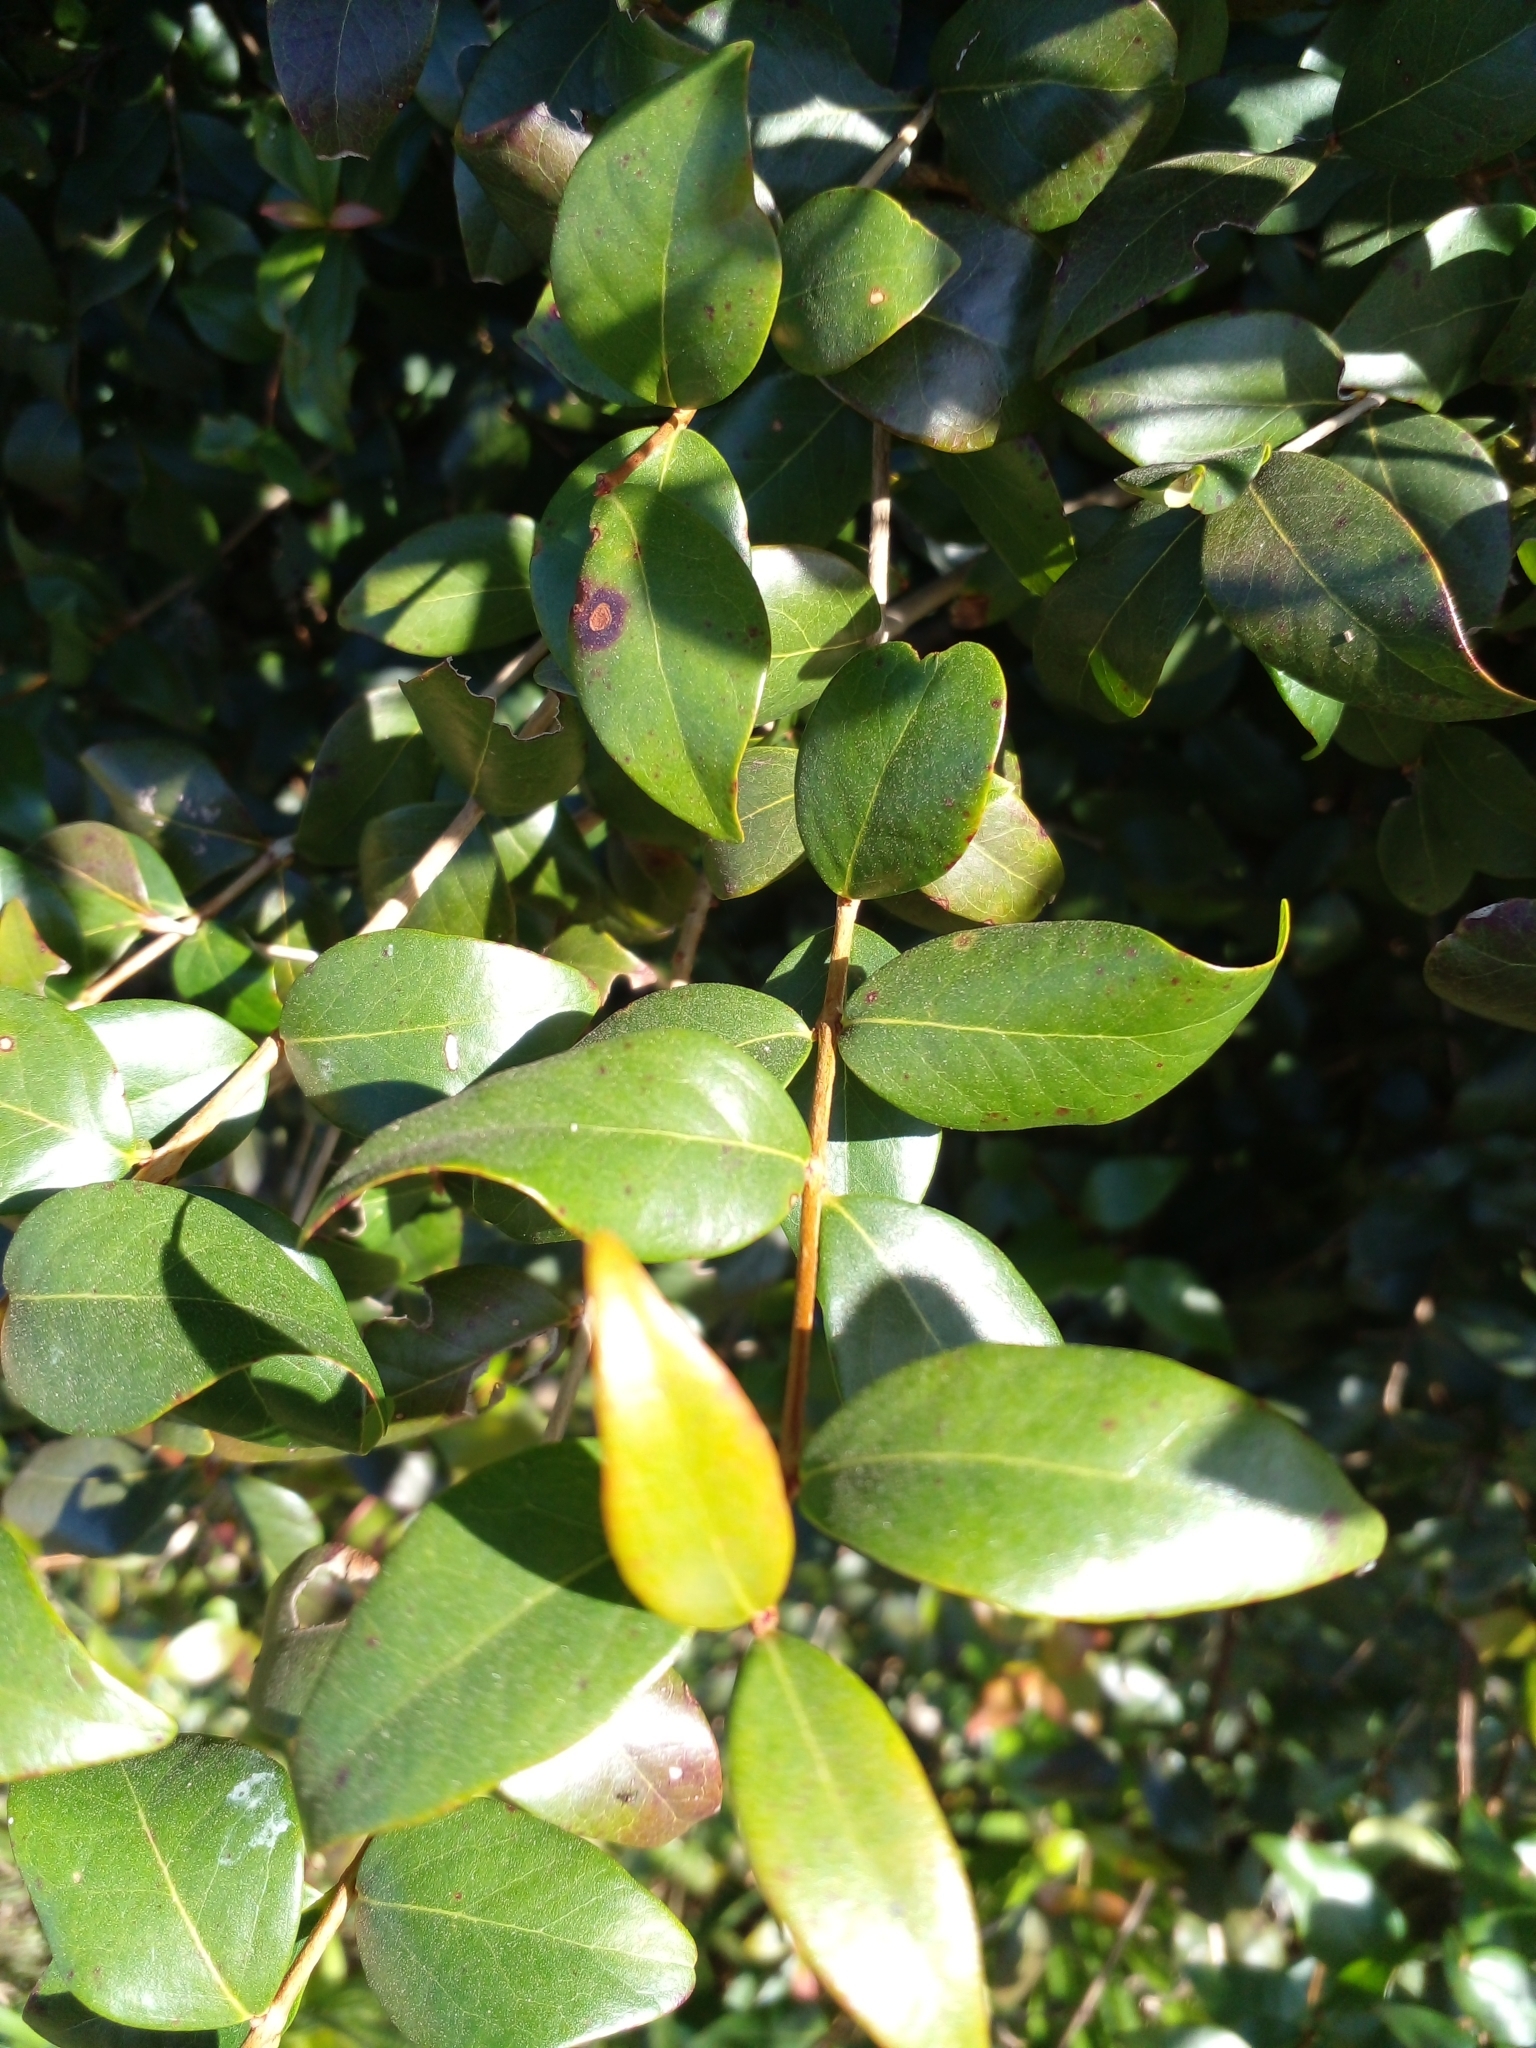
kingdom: Plantae
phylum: Tracheophyta
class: Magnoliopsida
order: Myrtales
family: Myrtaceae
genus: Eugenia
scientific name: Eugenia uniflora
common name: Surinam cherry
